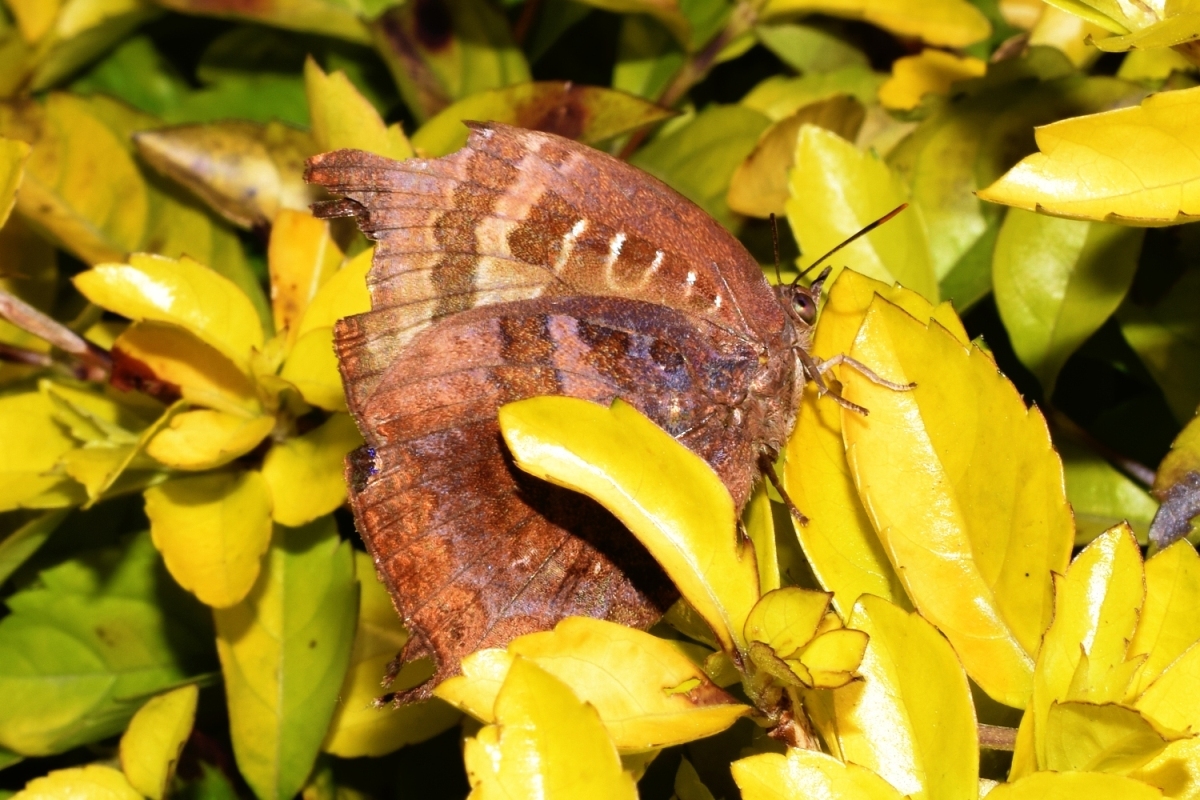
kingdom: Animalia
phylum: Arthropoda
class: Insecta
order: Lepidoptera
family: Lycaenidae
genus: Arhopala
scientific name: Arhopala centaurus
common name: Dull oak-blue
